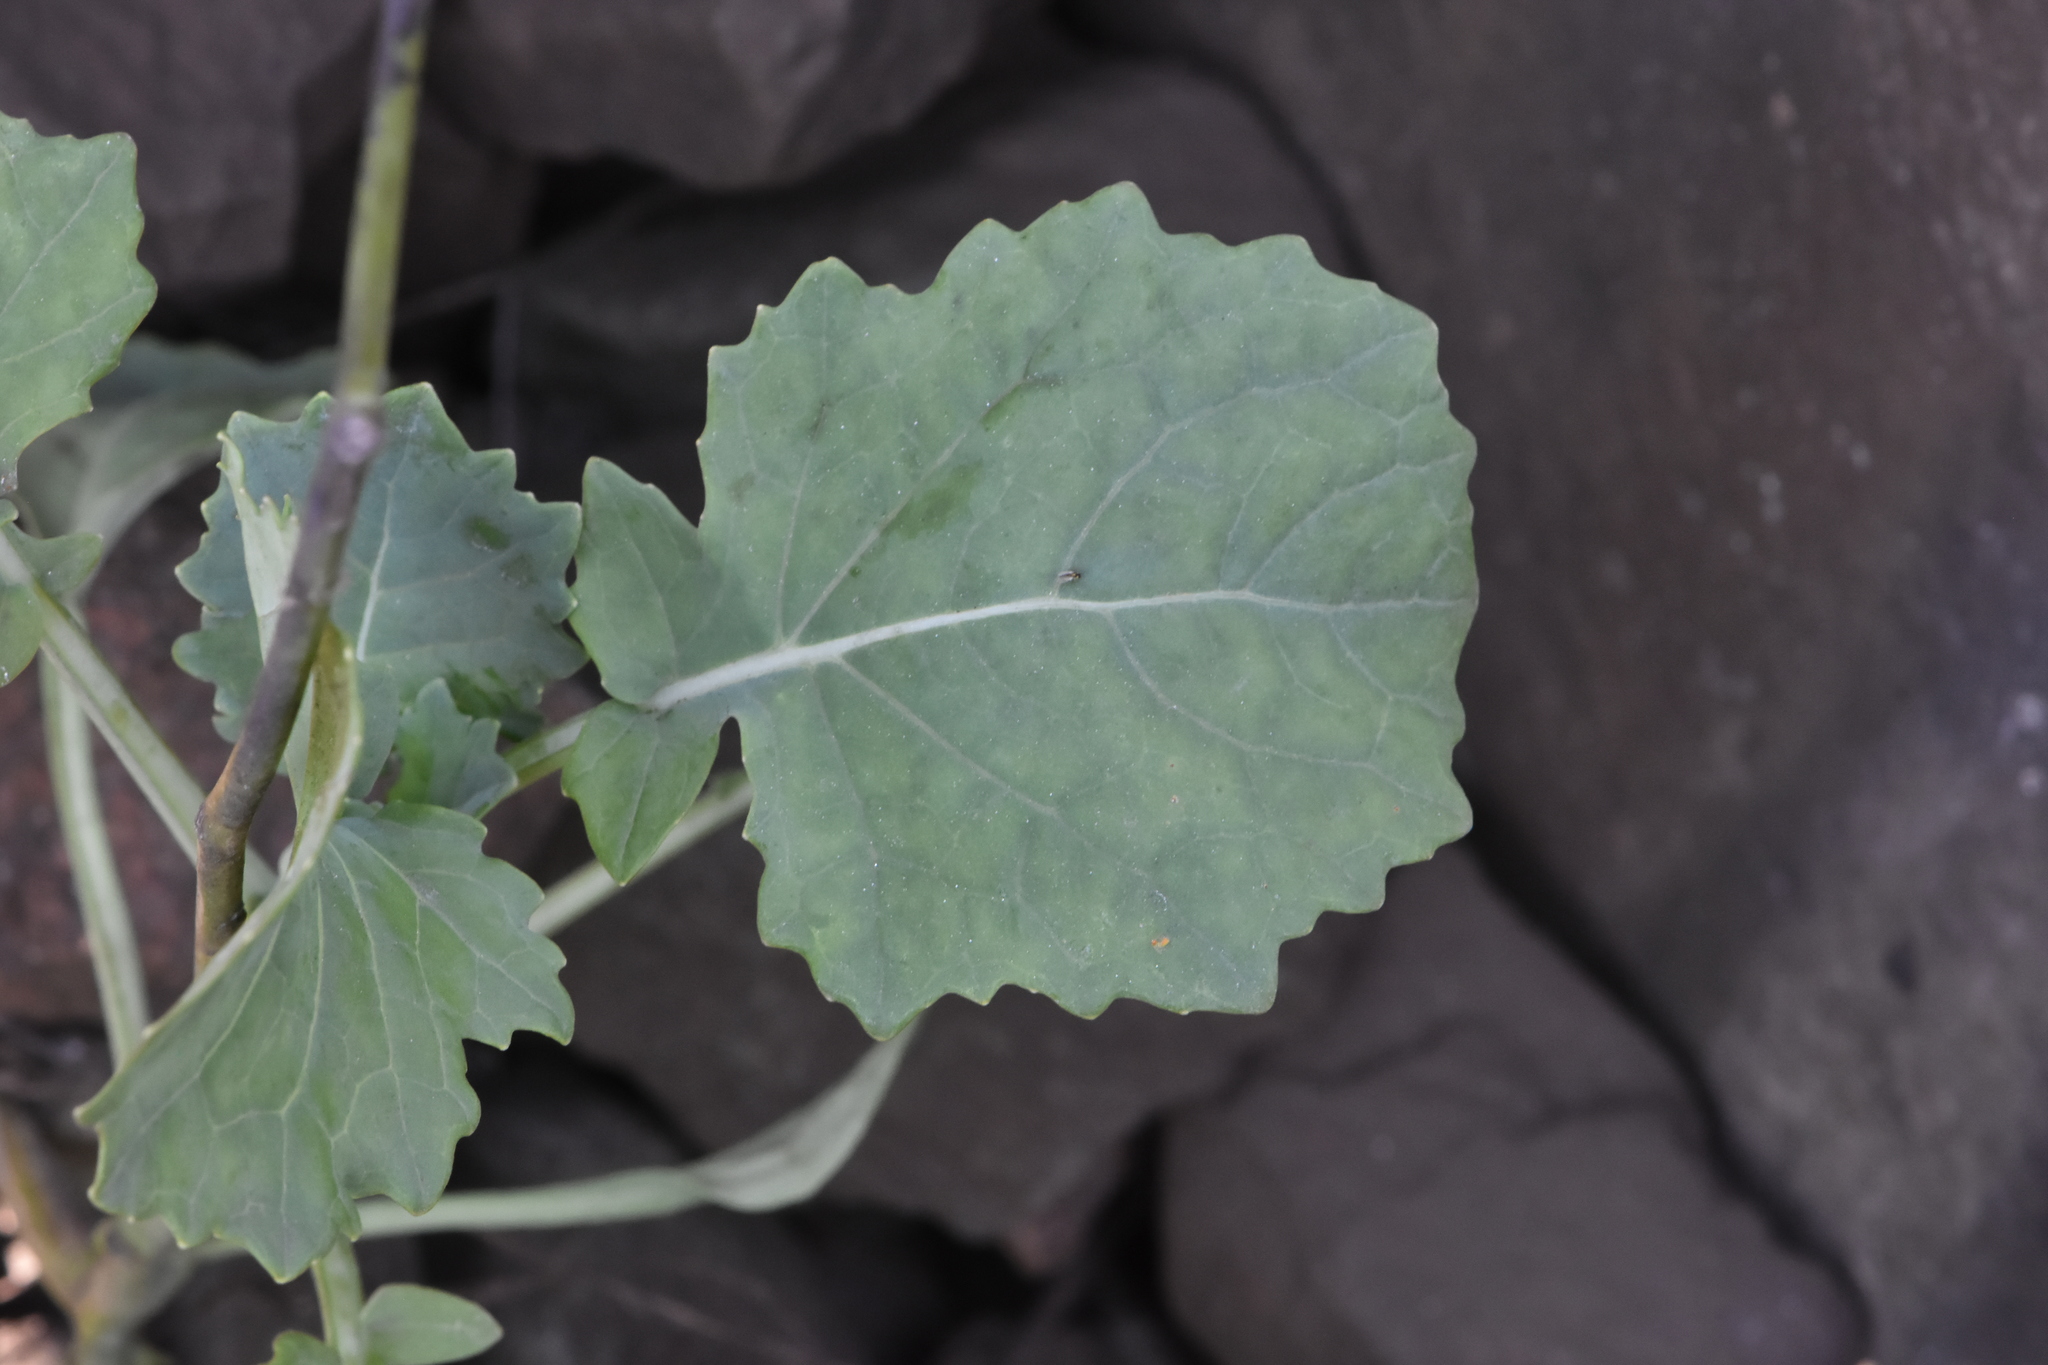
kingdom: Plantae
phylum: Tracheophyta
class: Magnoliopsida
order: Brassicales
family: Brassicaceae
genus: Brassica
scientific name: Brassica napus
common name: Rape
